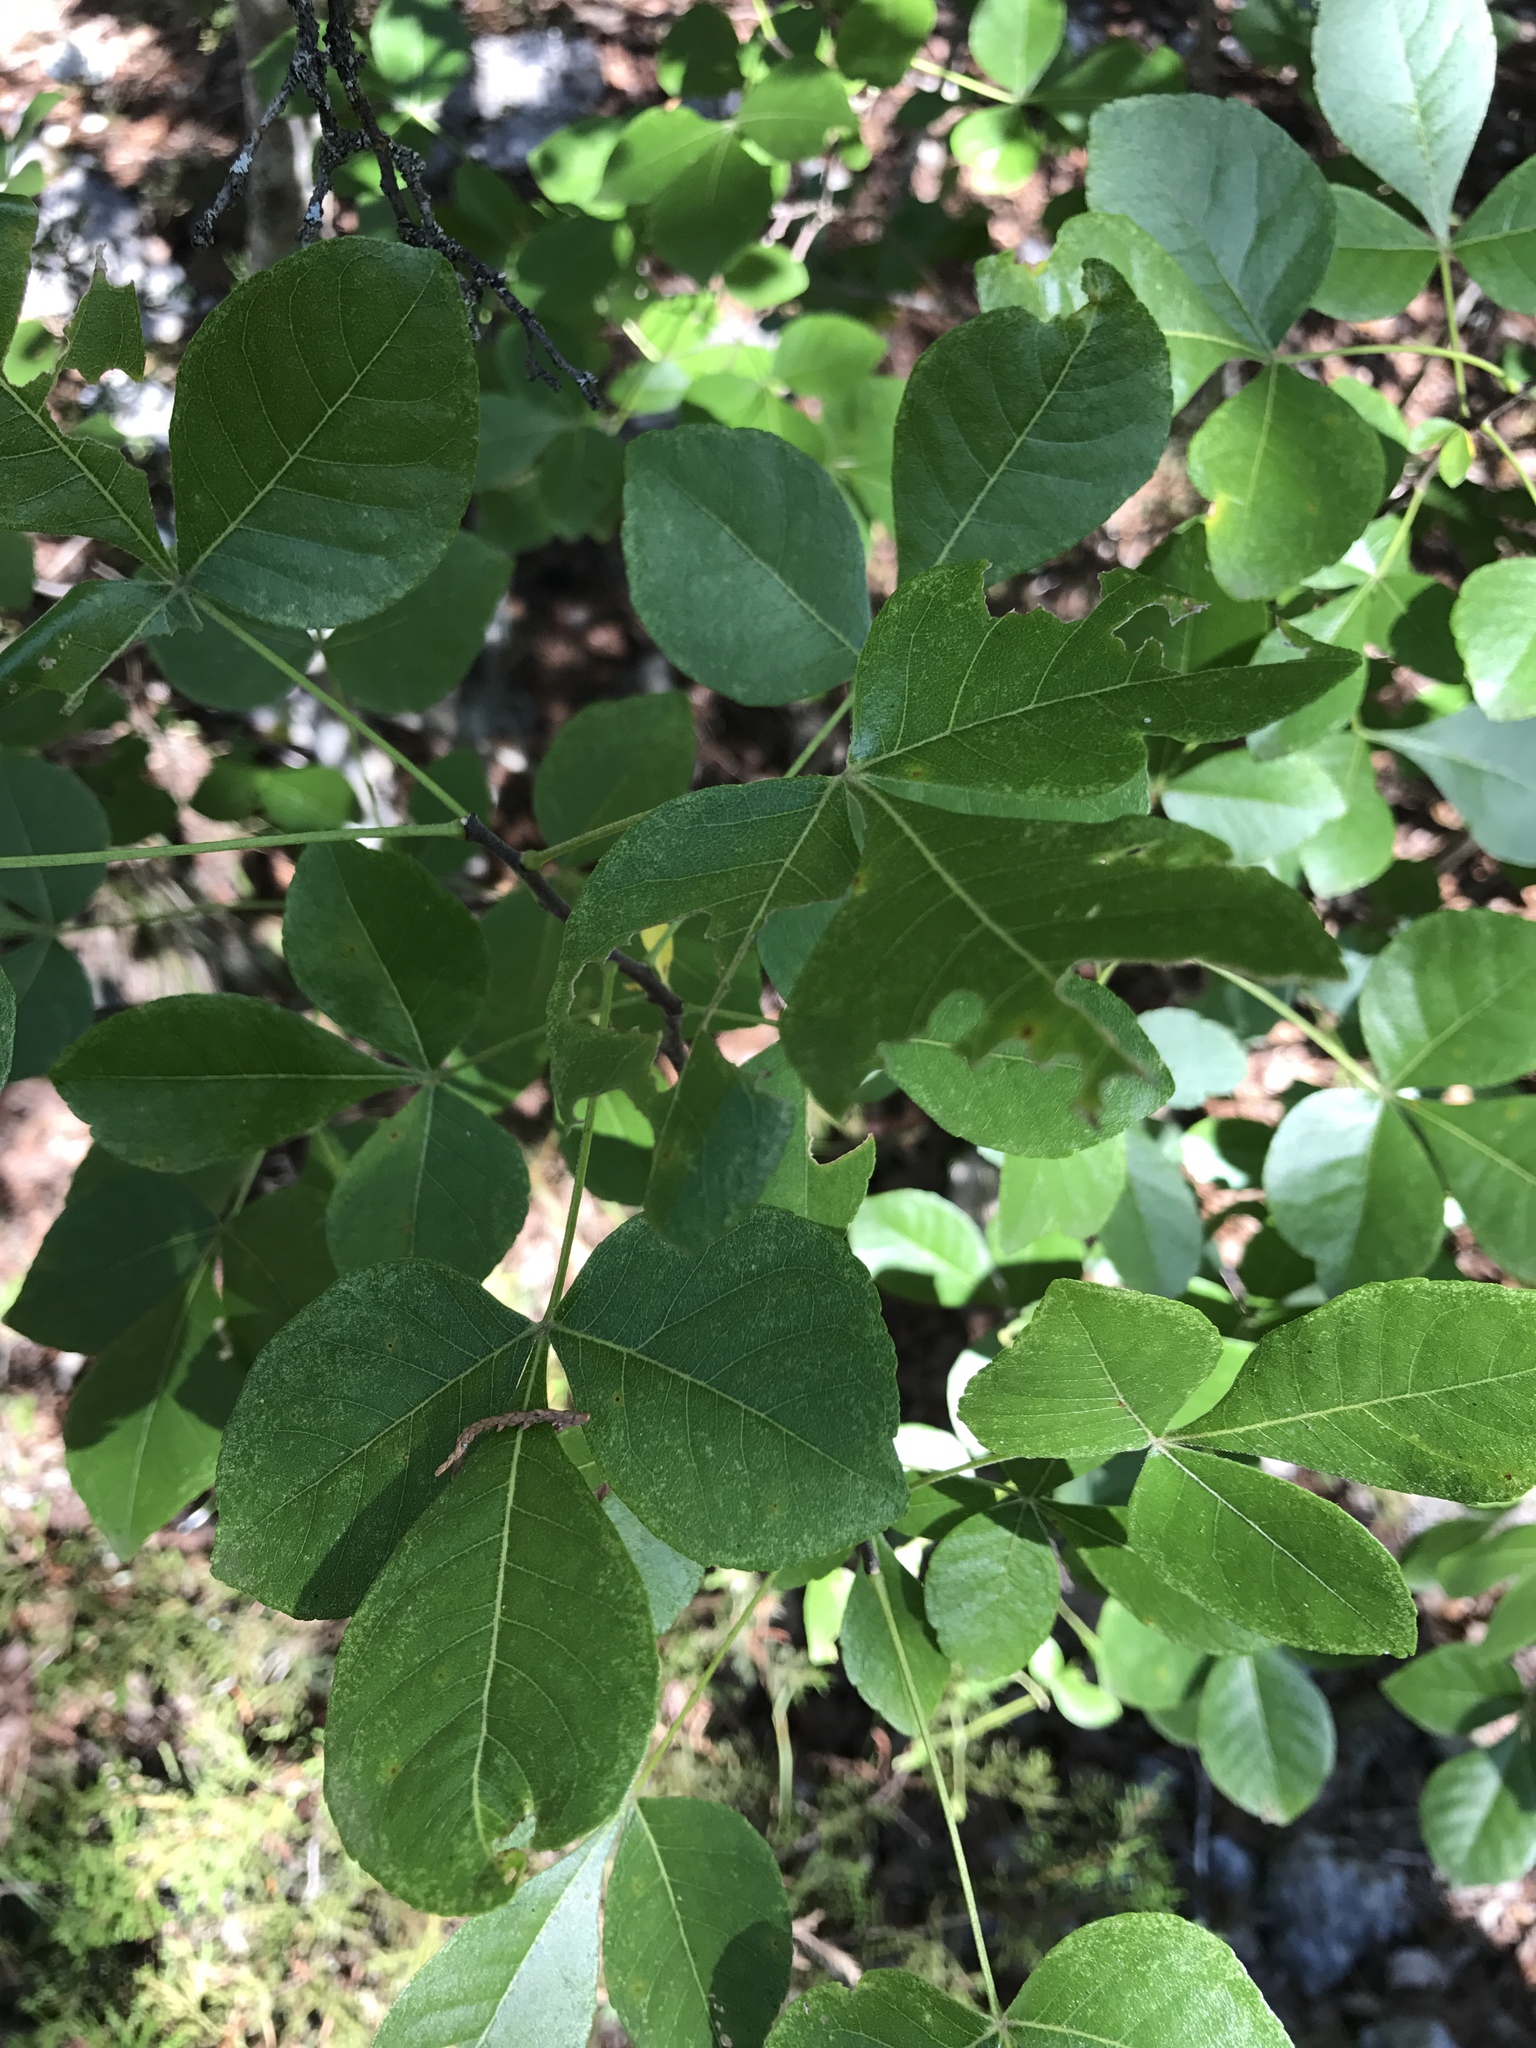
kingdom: Plantae
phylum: Tracheophyta
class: Magnoliopsida
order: Sapindales
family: Rutaceae
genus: Ptelea
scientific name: Ptelea trifoliata
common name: Common hop-tree
